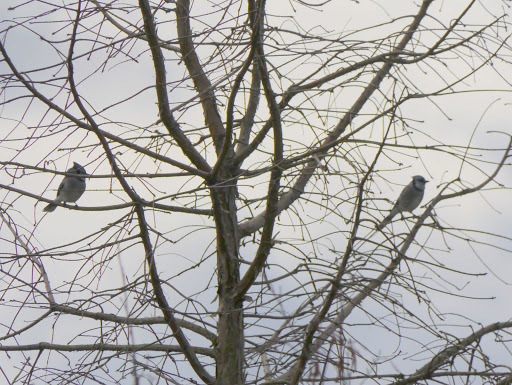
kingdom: Animalia
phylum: Chordata
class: Aves
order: Passeriformes
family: Corvidae
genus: Cyanocitta
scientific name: Cyanocitta cristata
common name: Blue jay
